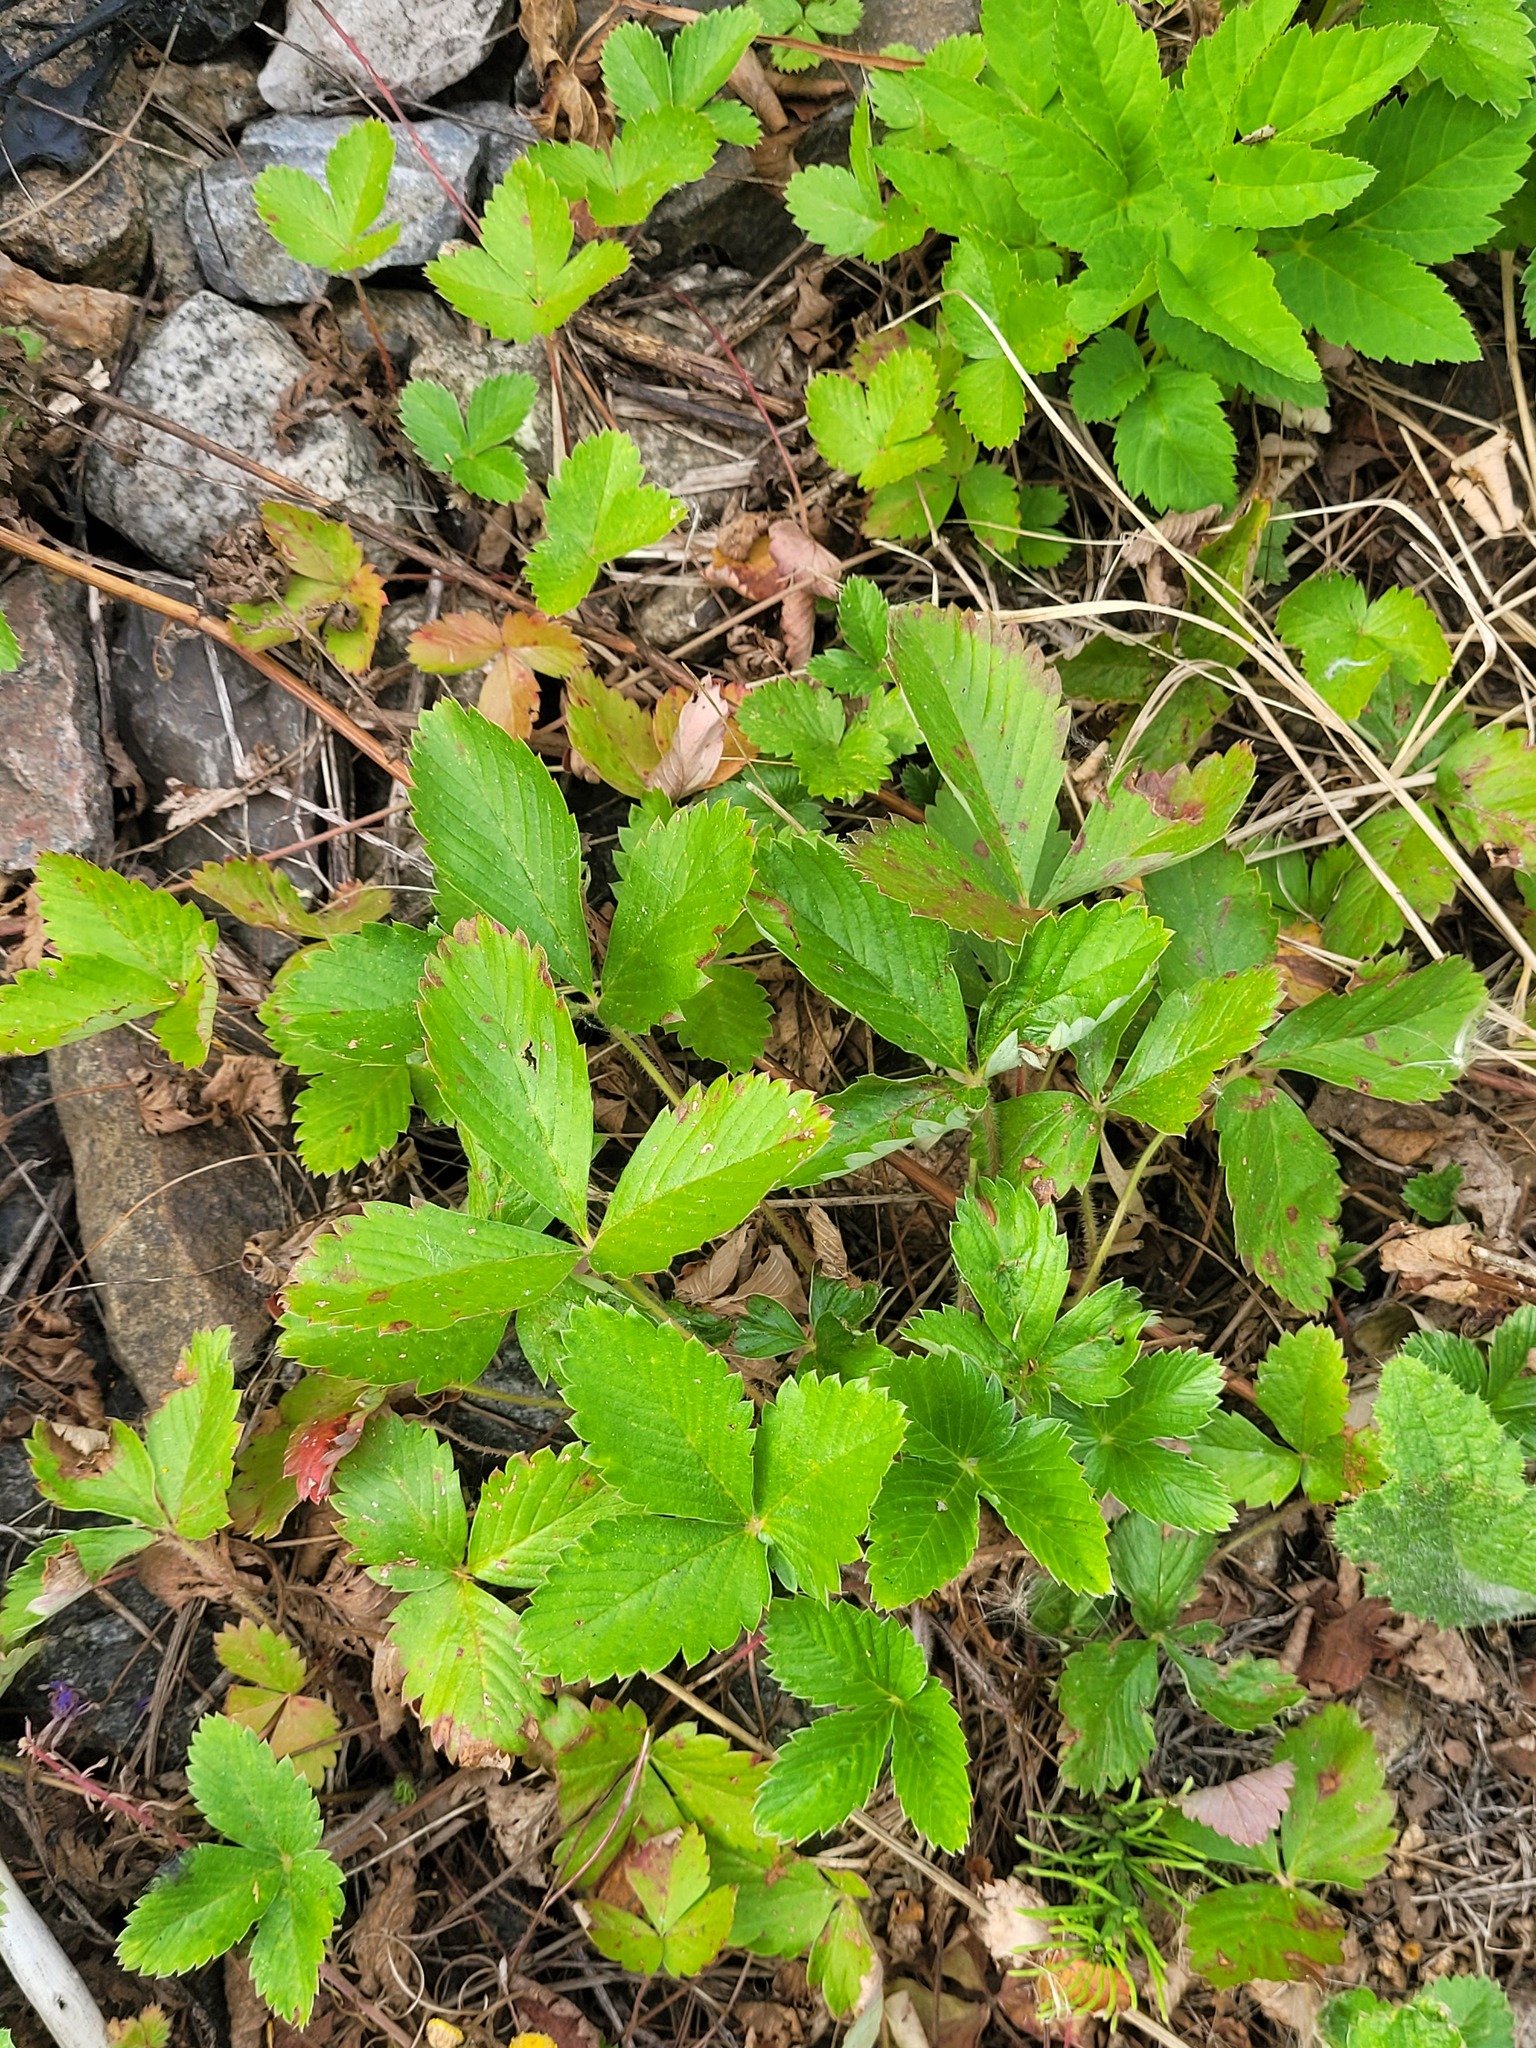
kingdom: Plantae
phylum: Tracheophyta
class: Magnoliopsida
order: Rosales
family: Rosaceae
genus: Fragaria
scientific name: Fragaria viridis
